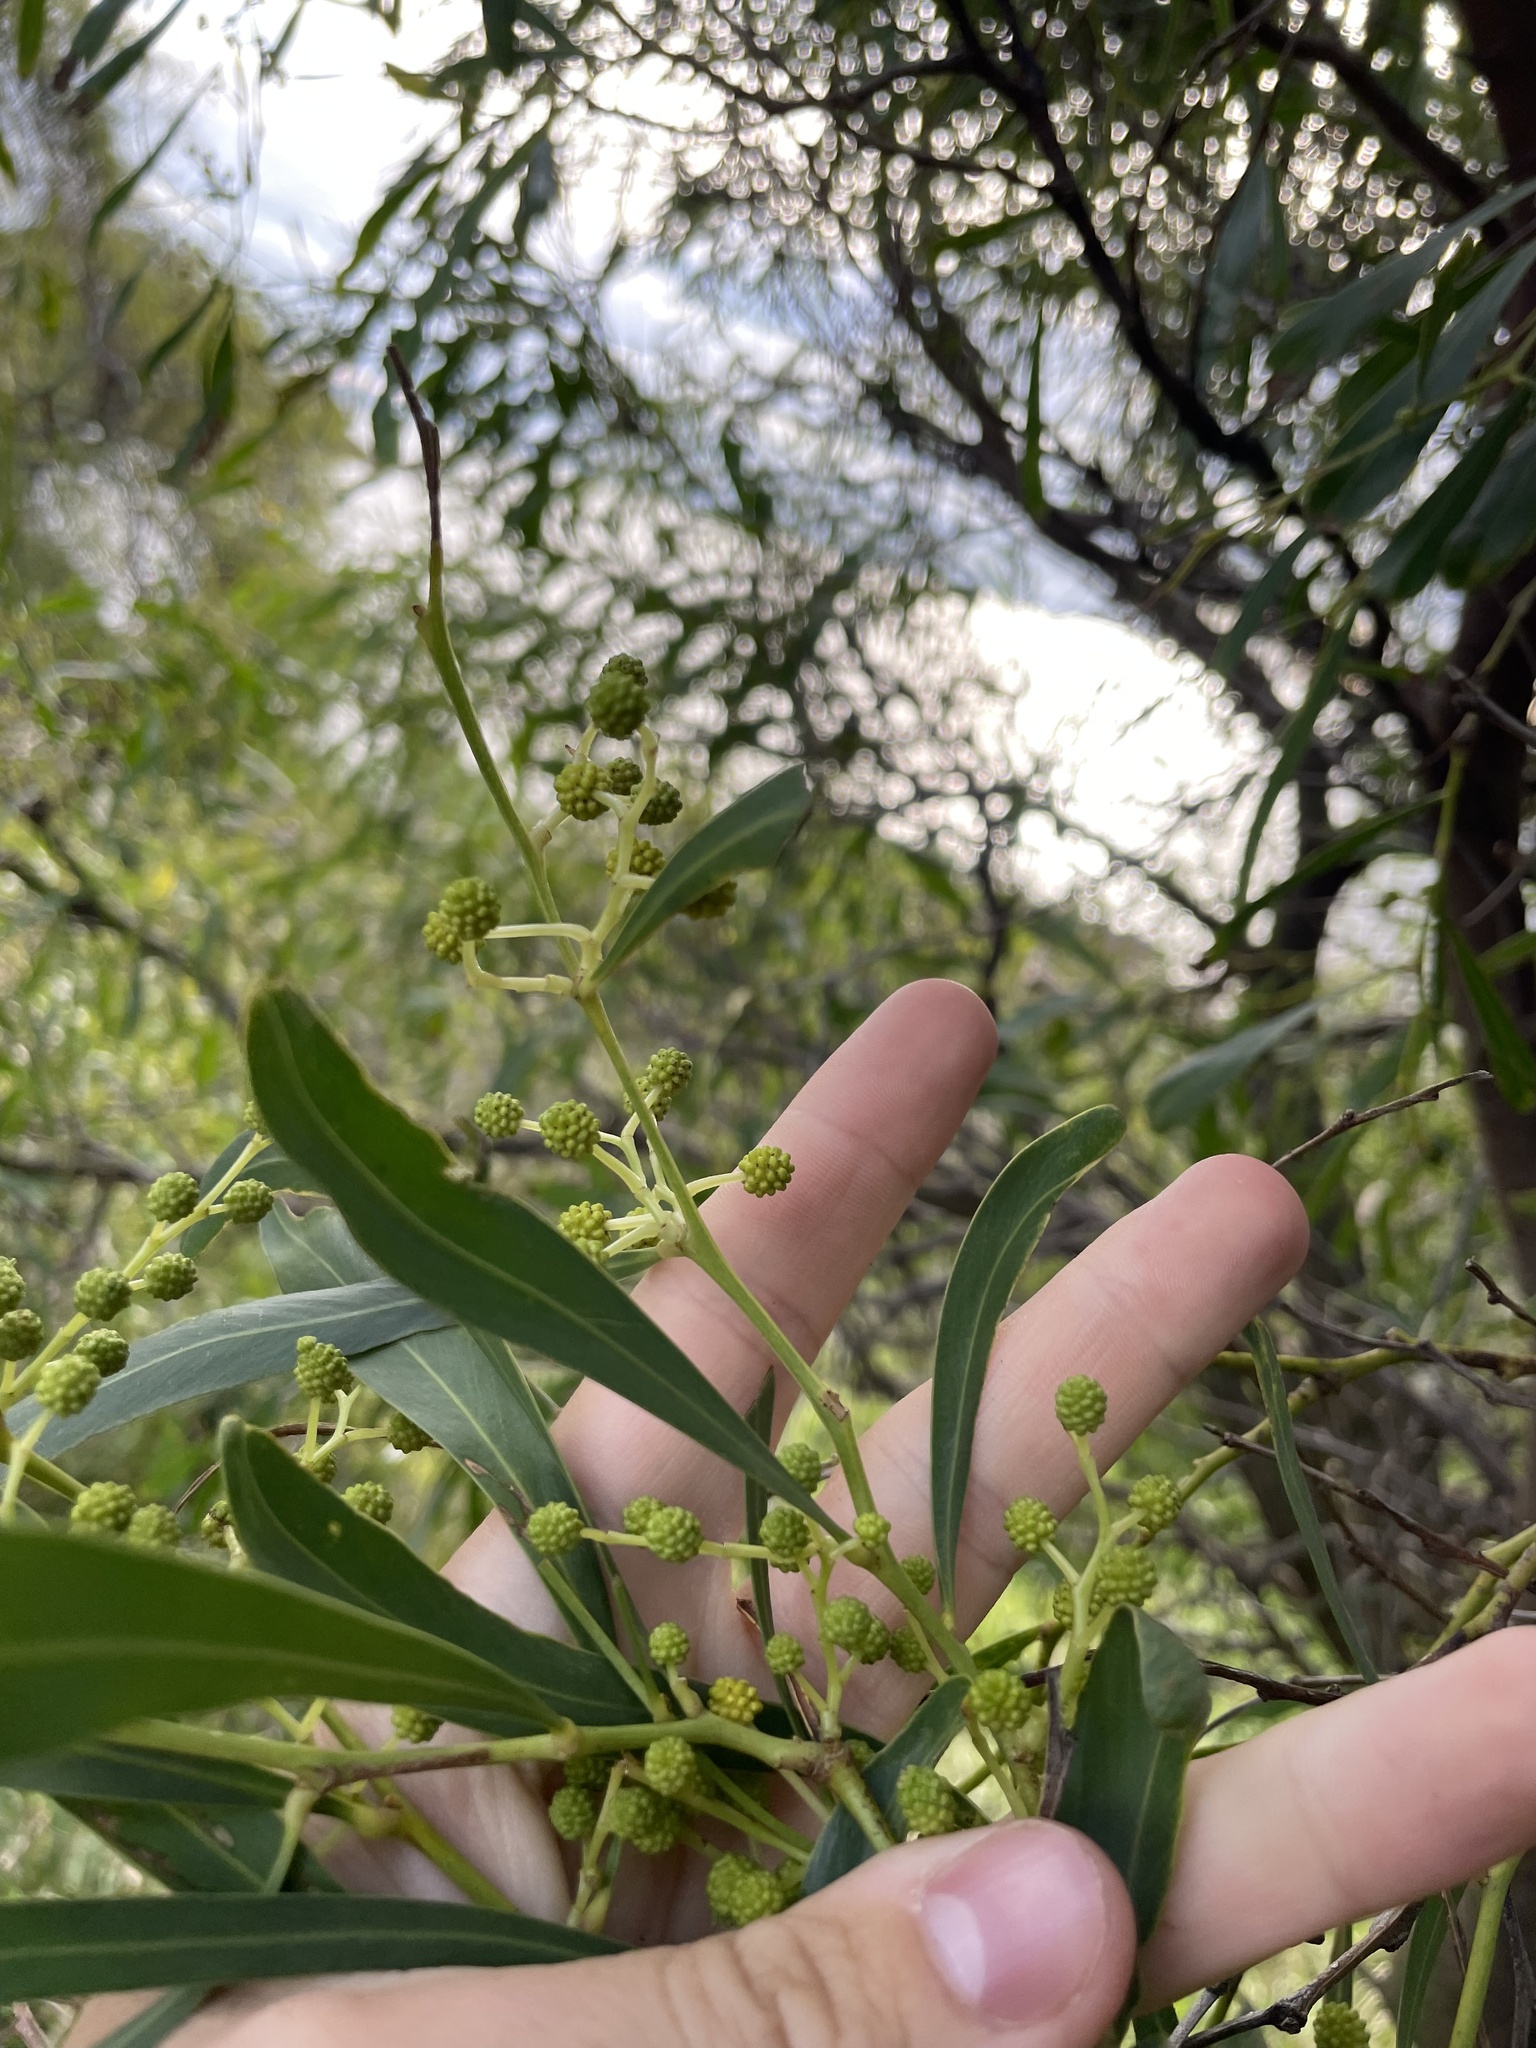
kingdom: Plantae
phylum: Tracheophyta
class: Magnoliopsida
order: Fabales
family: Fabaceae
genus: Acacia
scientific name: Acacia saligna
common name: Orange wattle
